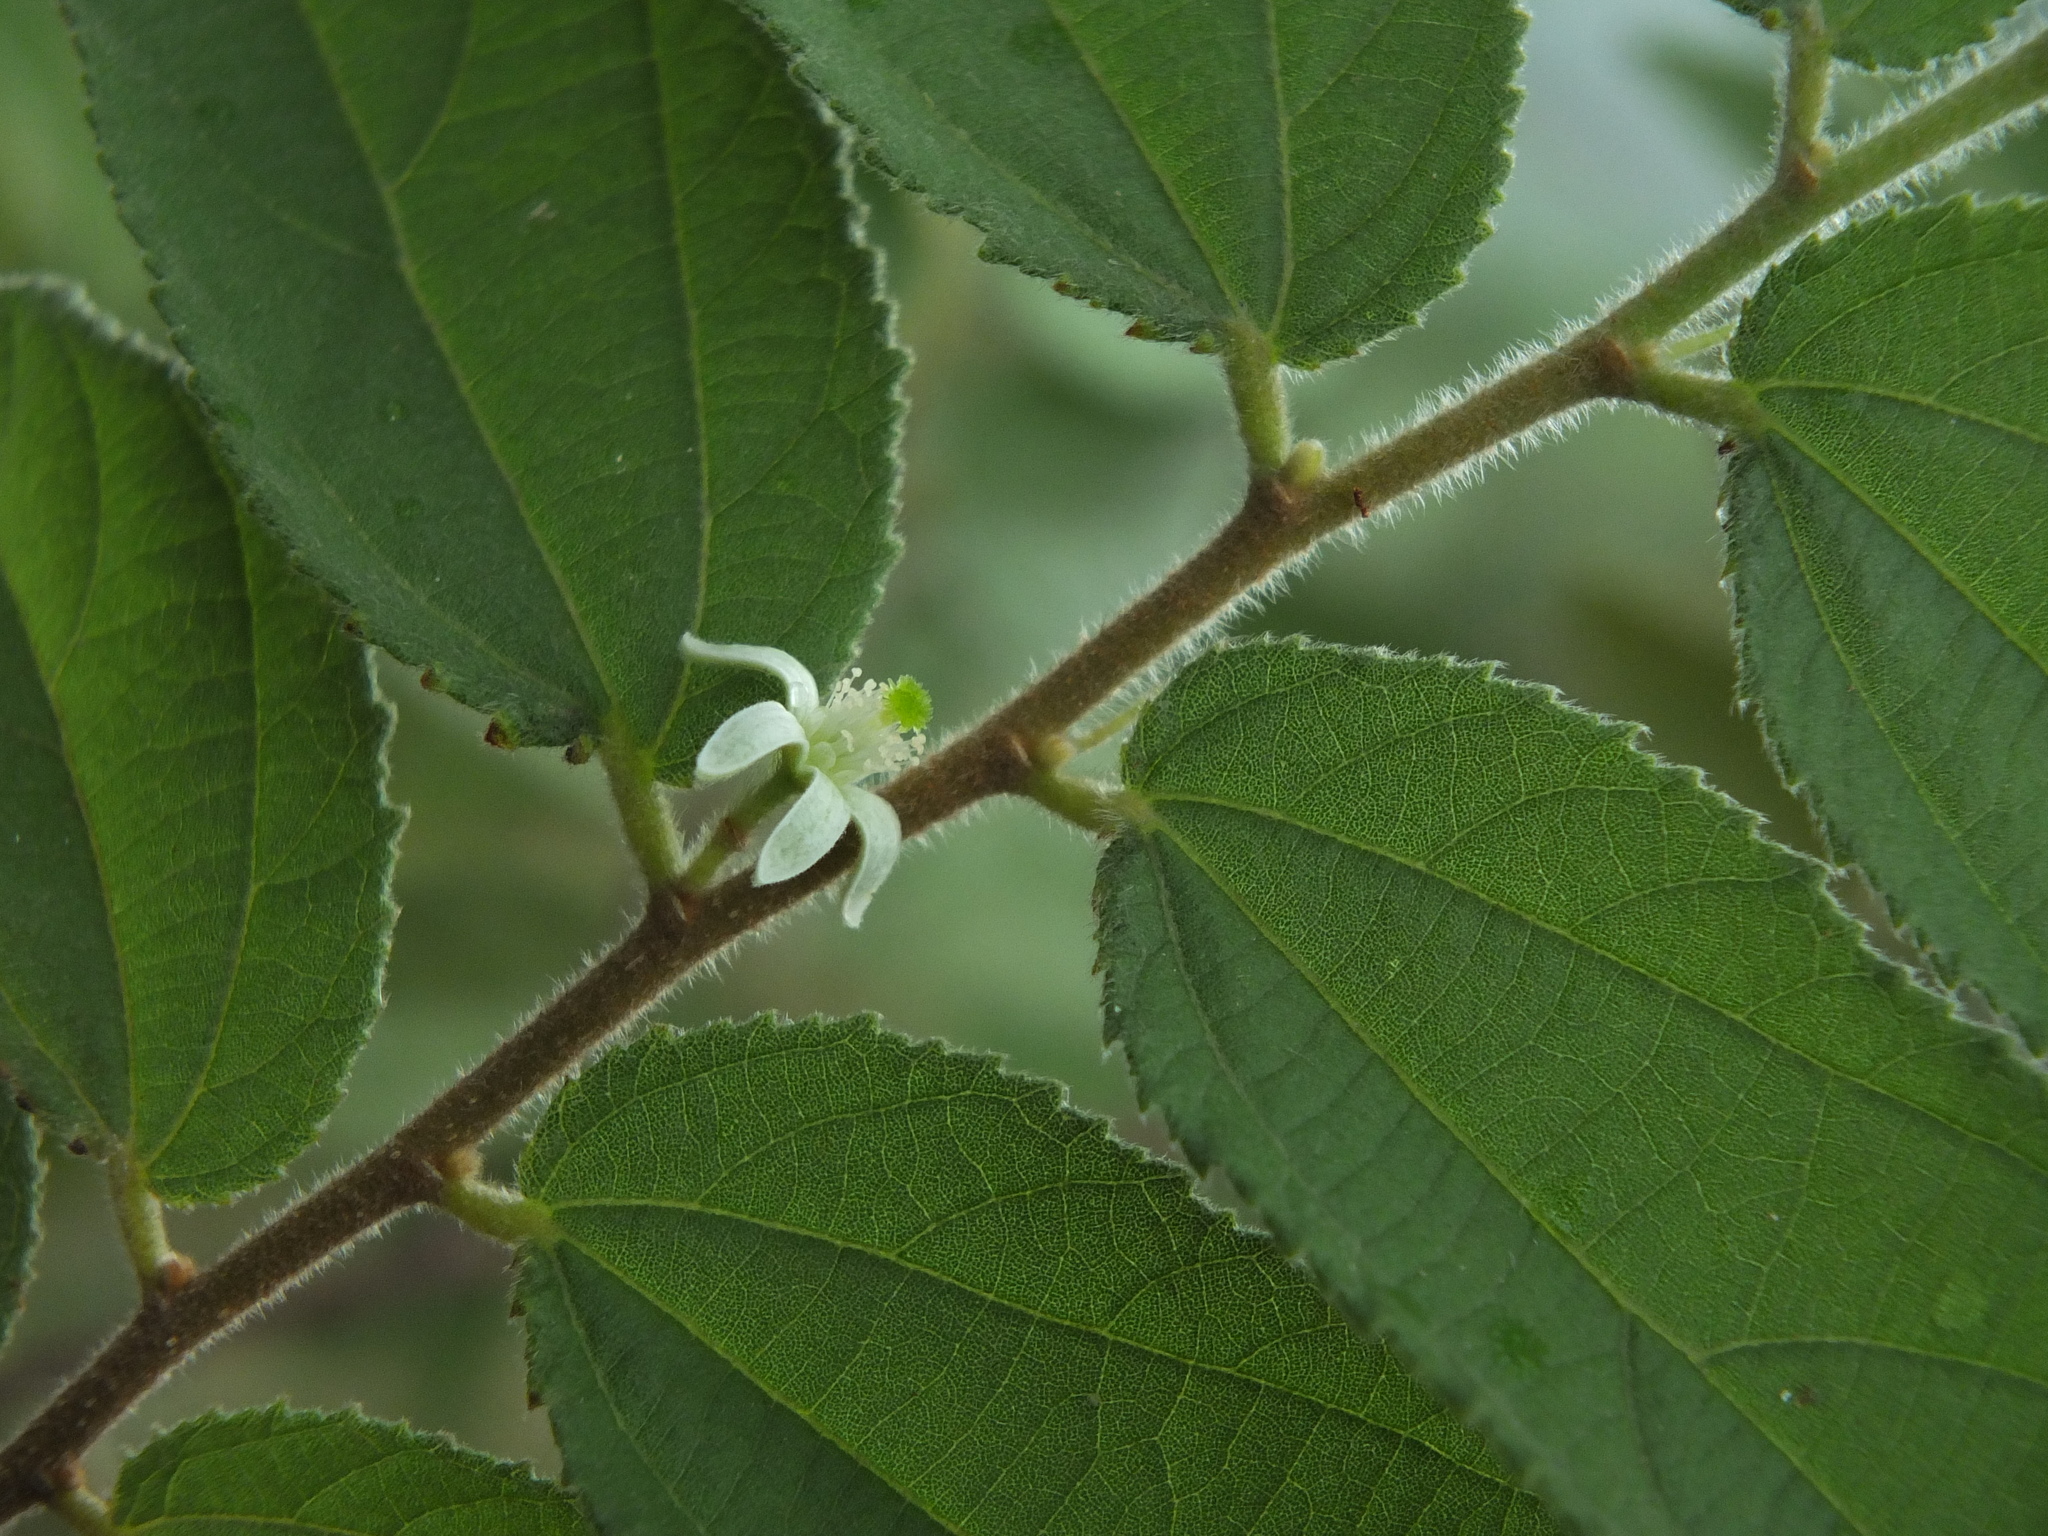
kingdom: Plantae
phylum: Tracheophyta
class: Magnoliopsida
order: Malvales
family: Malvaceae
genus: Grewia
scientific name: Grewia hirsuta
